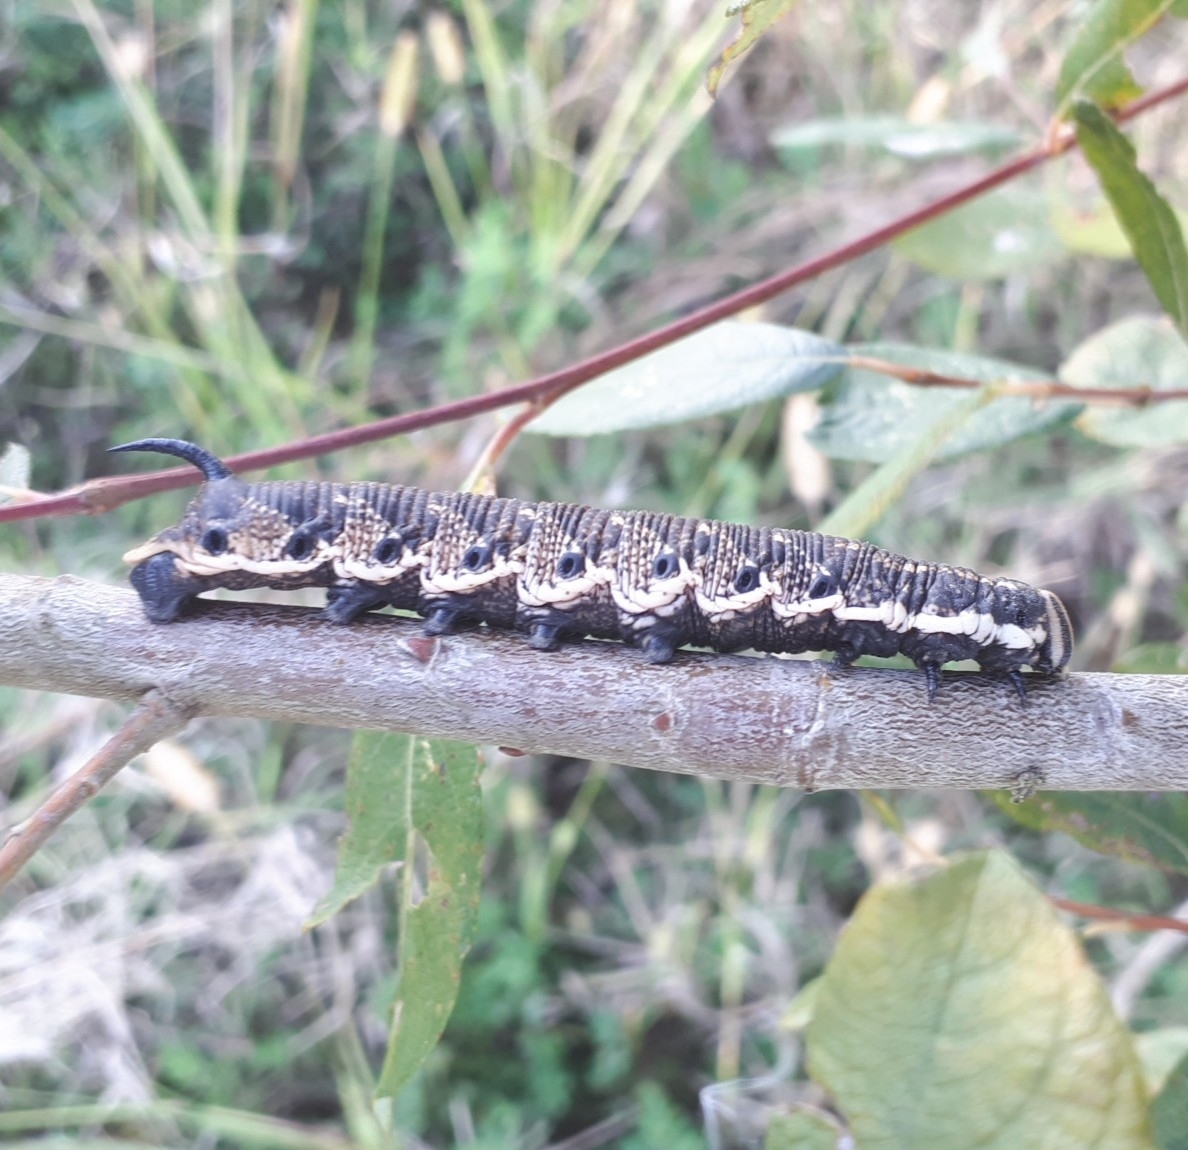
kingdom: Animalia
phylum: Arthropoda
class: Insecta
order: Lepidoptera
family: Sphingidae
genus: Agrius
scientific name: Agrius convolvuli
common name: Convolvulus hawkmoth
